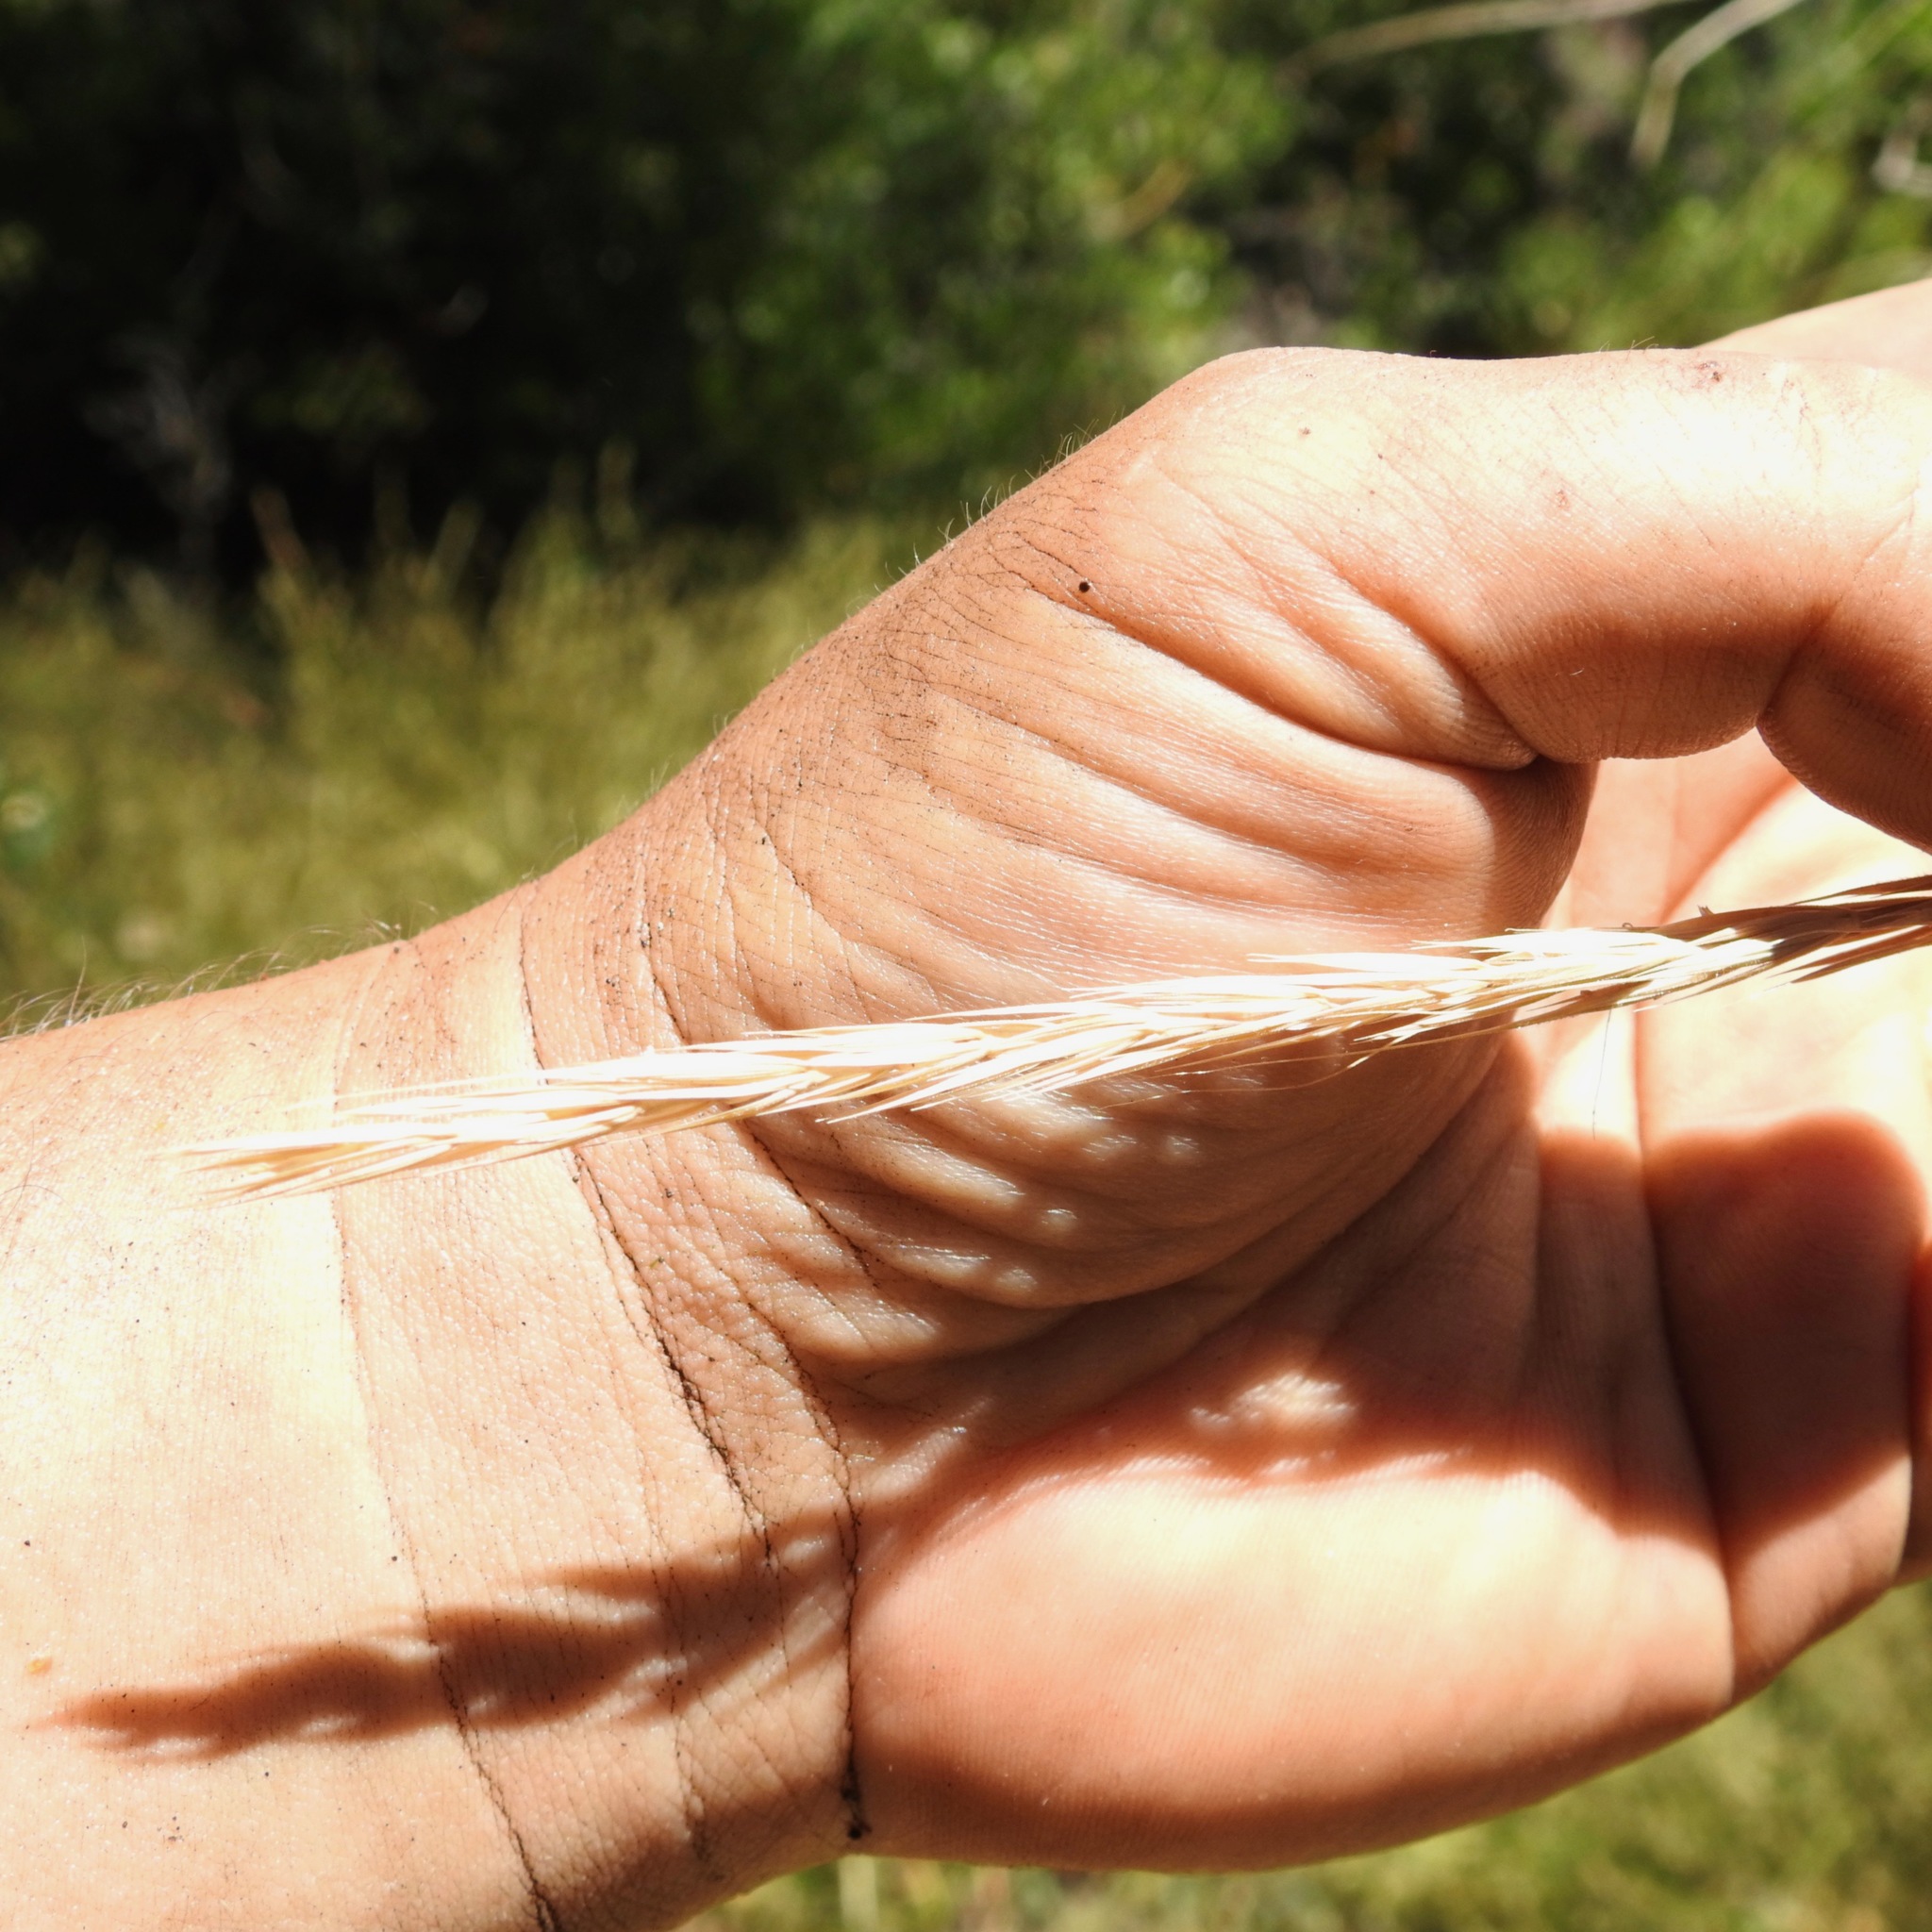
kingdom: Plantae
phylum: Tracheophyta
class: Liliopsida
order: Poales
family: Poaceae
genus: Elymus
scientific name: Elymus glaucus
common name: Blue wild rye
